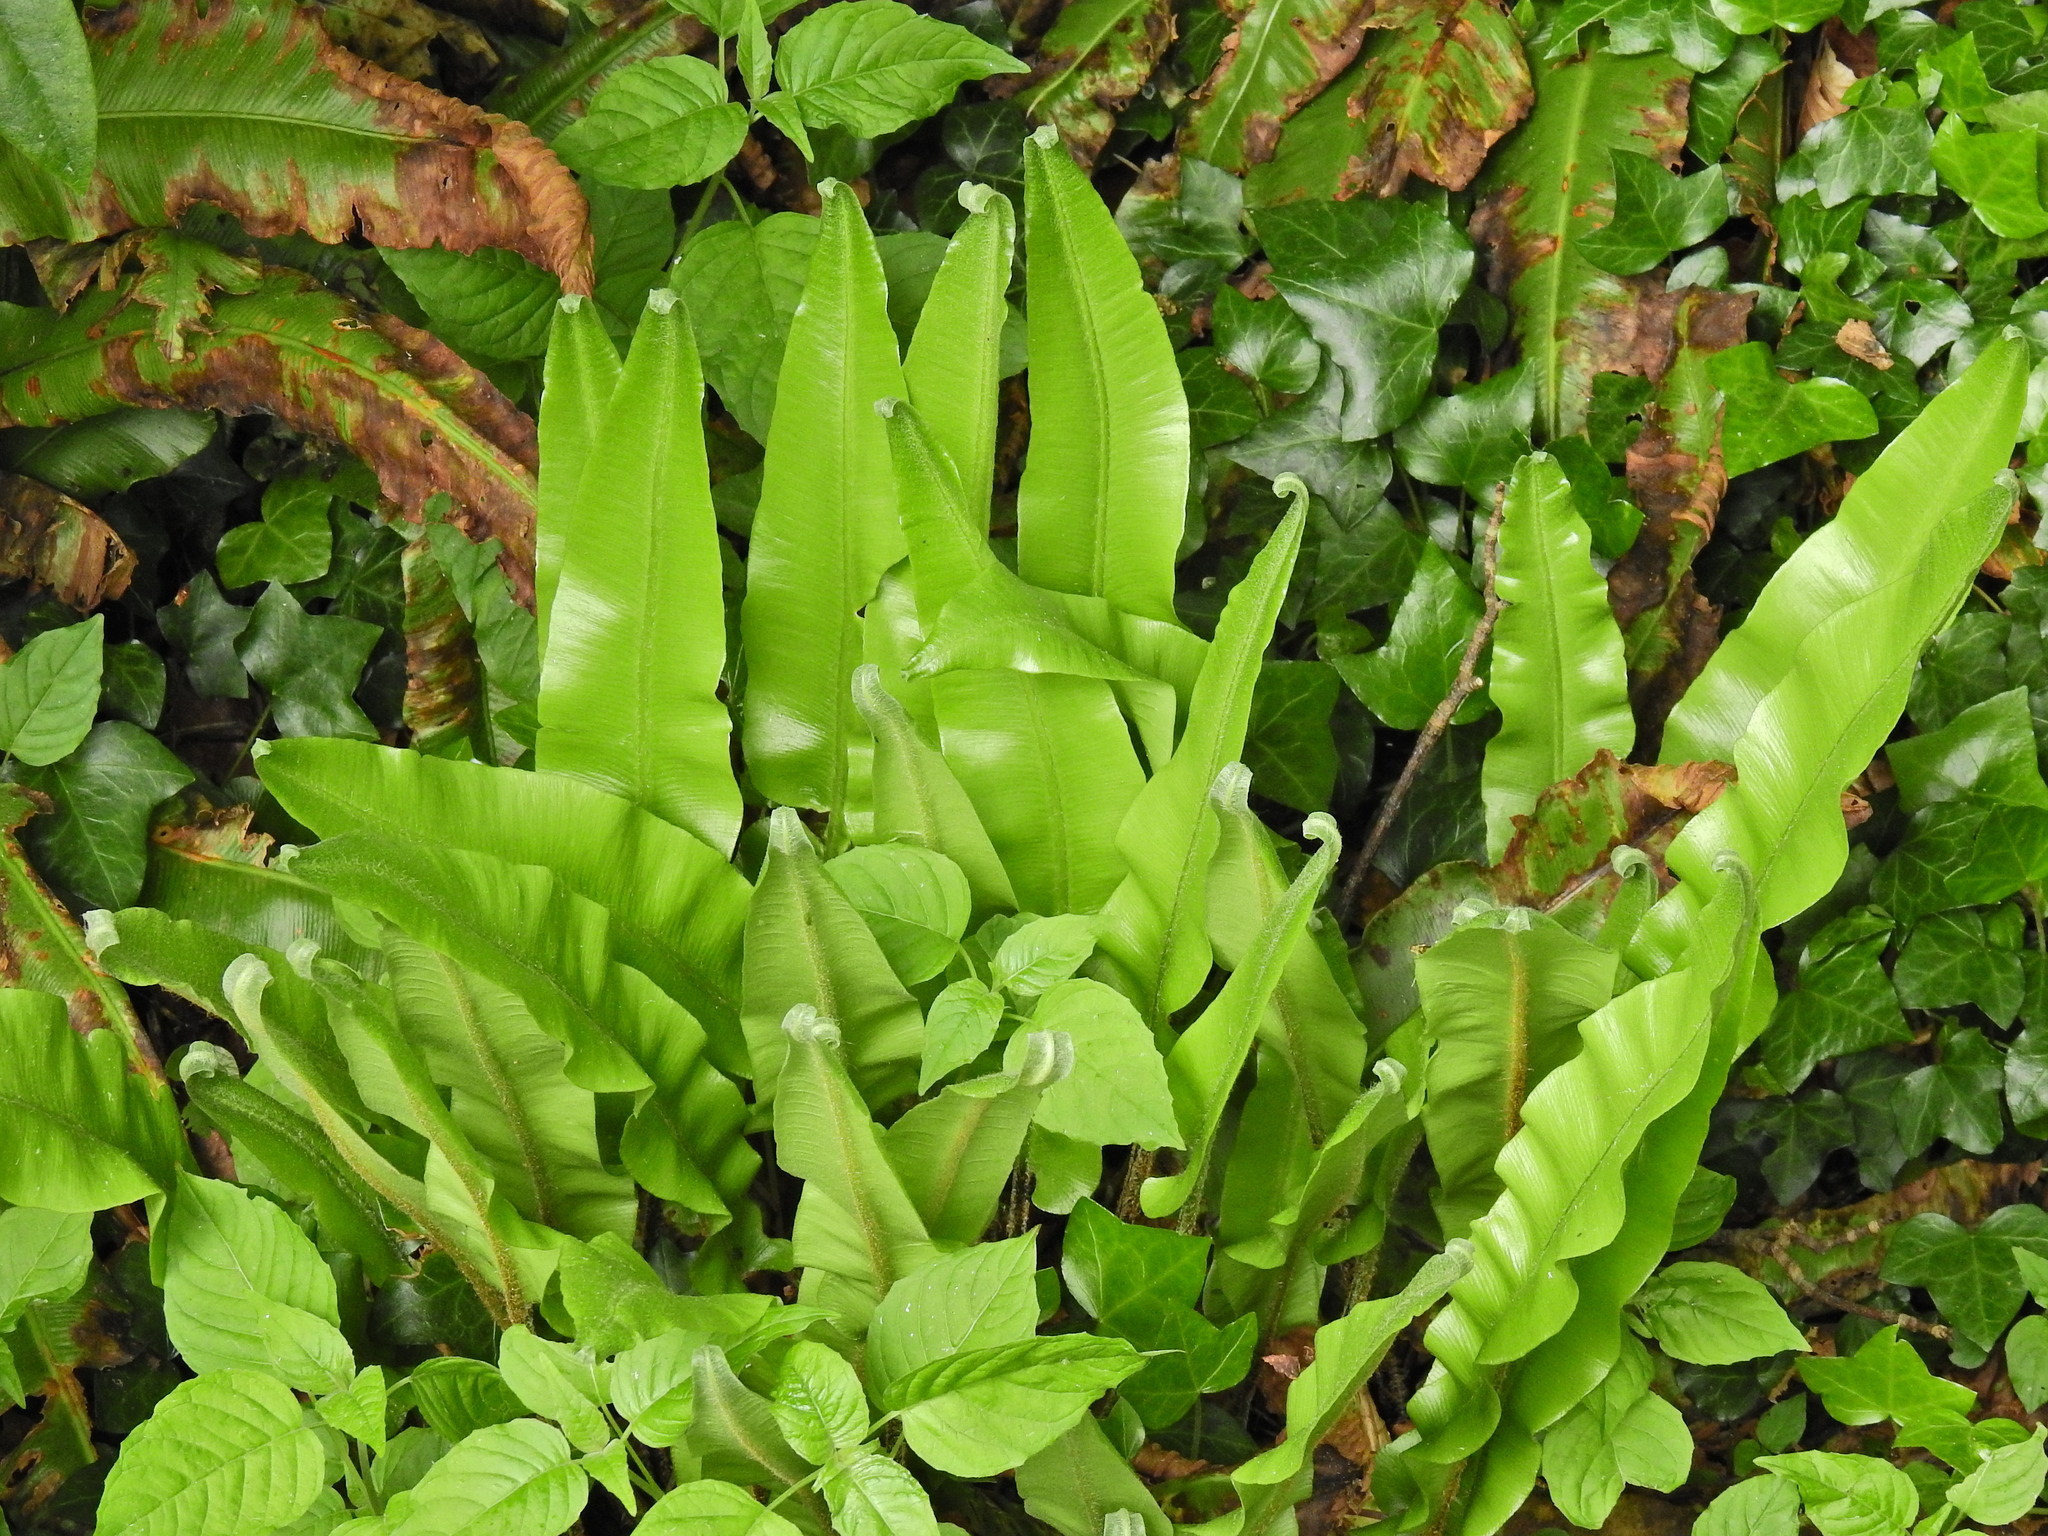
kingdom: Plantae
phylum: Tracheophyta
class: Polypodiopsida
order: Polypodiales
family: Aspleniaceae
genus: Asplenium
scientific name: Asplenium scolopendrium
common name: Hart's-tongue fern
